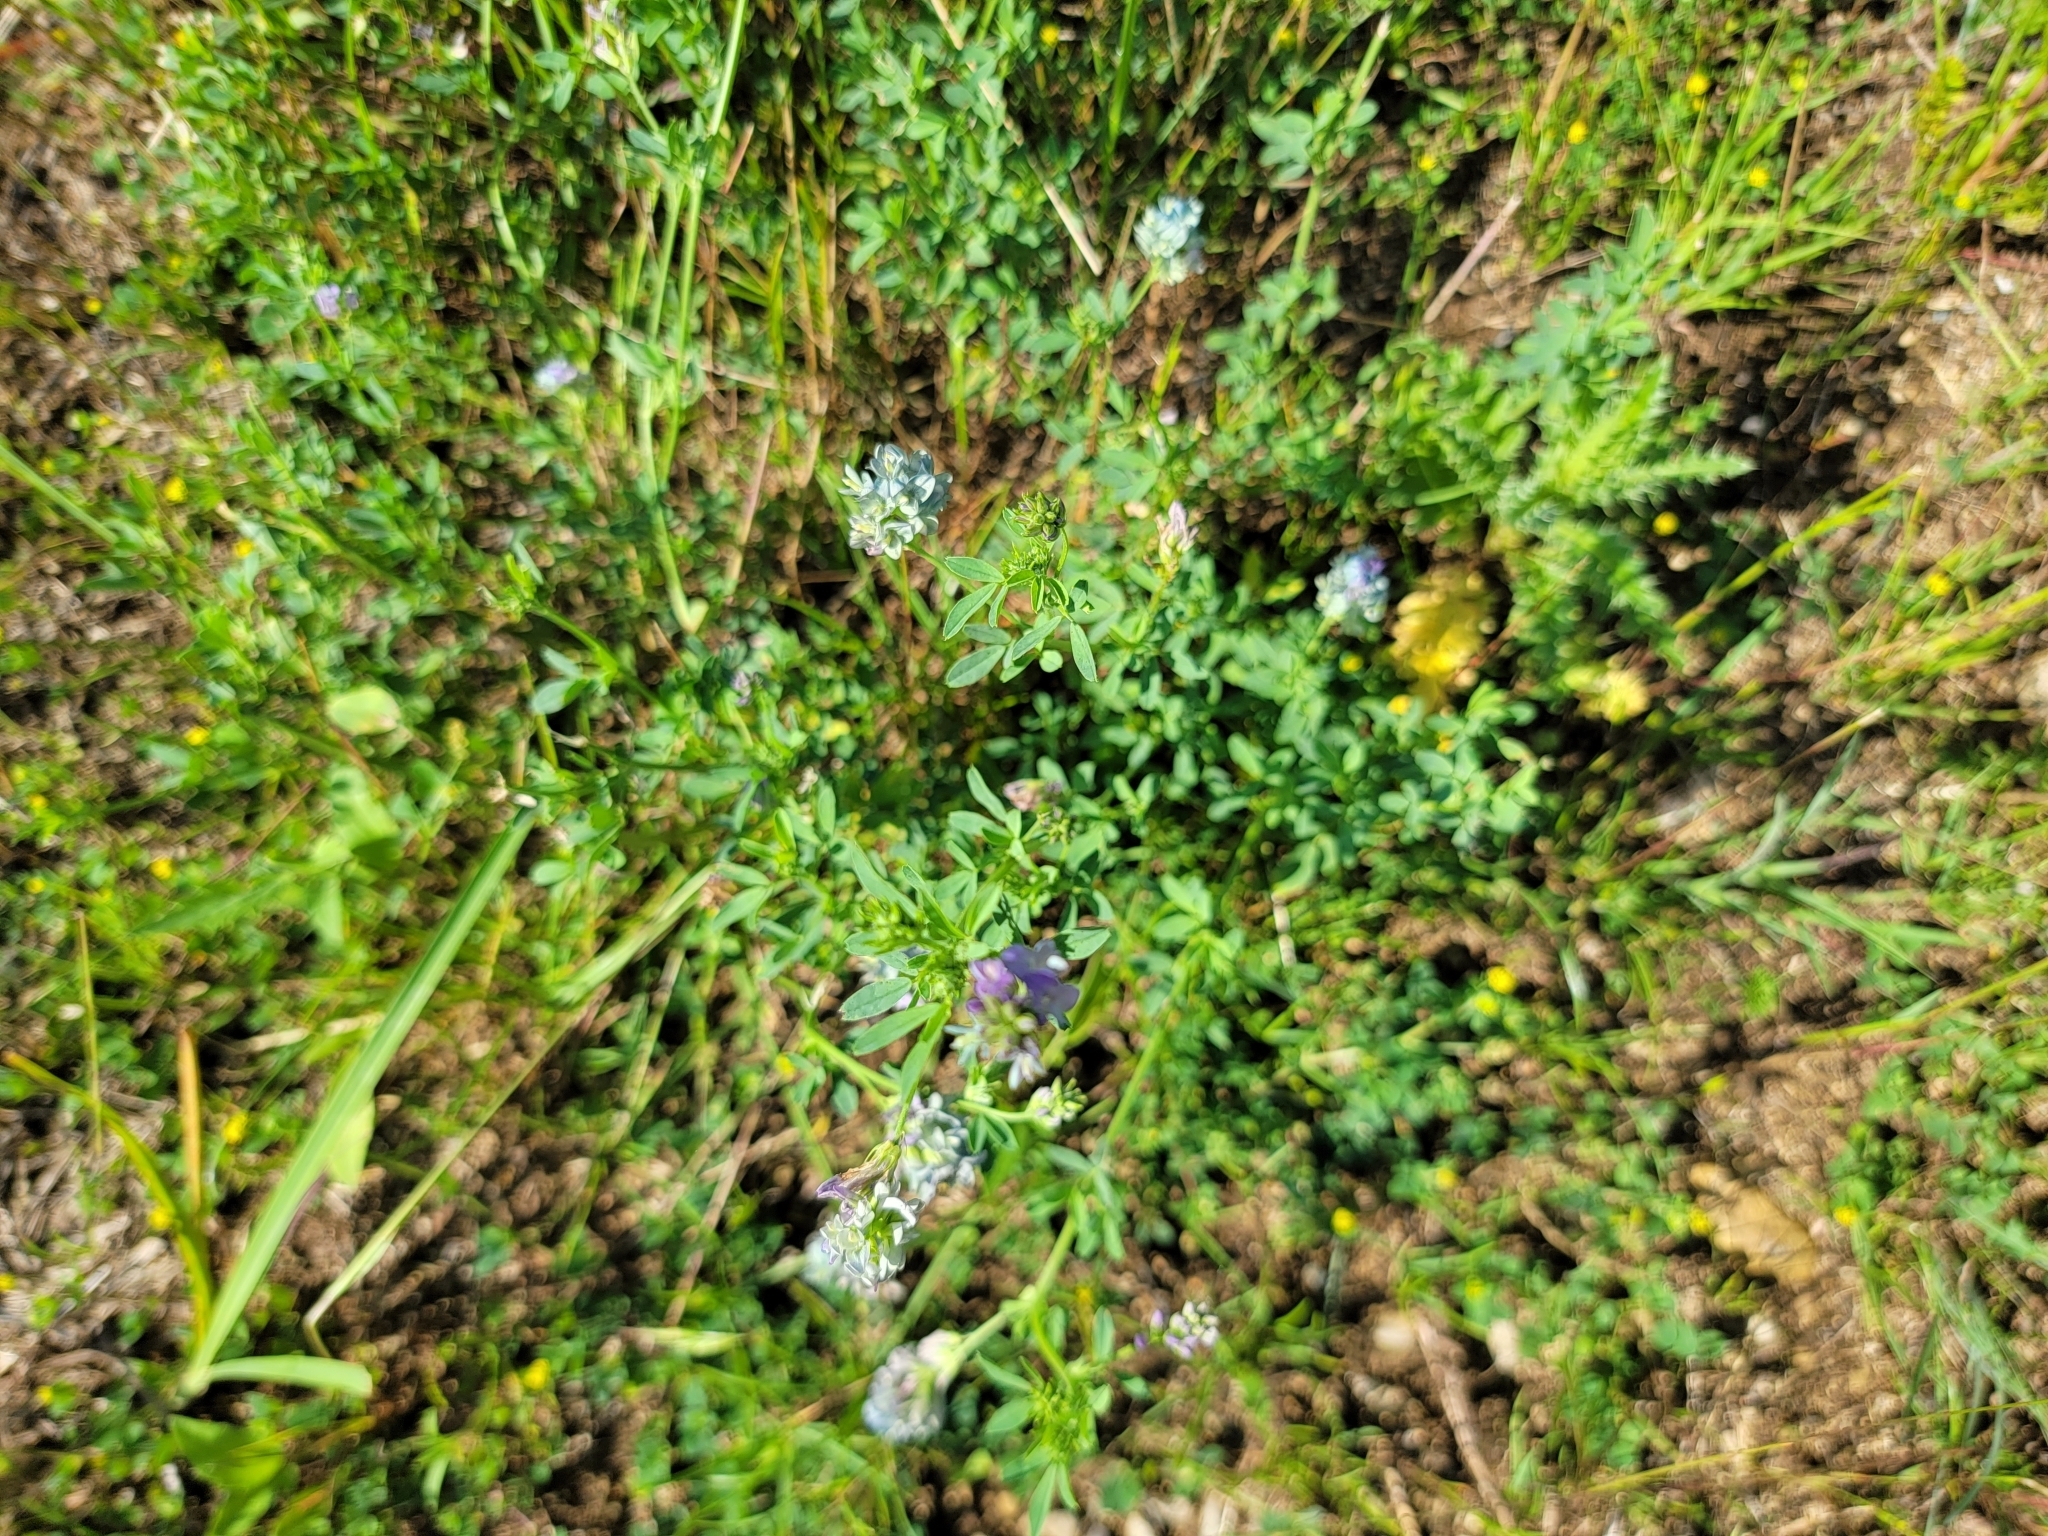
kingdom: Plantae
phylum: Tracheophyta
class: Magnoliopsida
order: Fabales
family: Fabaceae
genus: Medicago
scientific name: Medicago sativa
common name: Alfalfa
